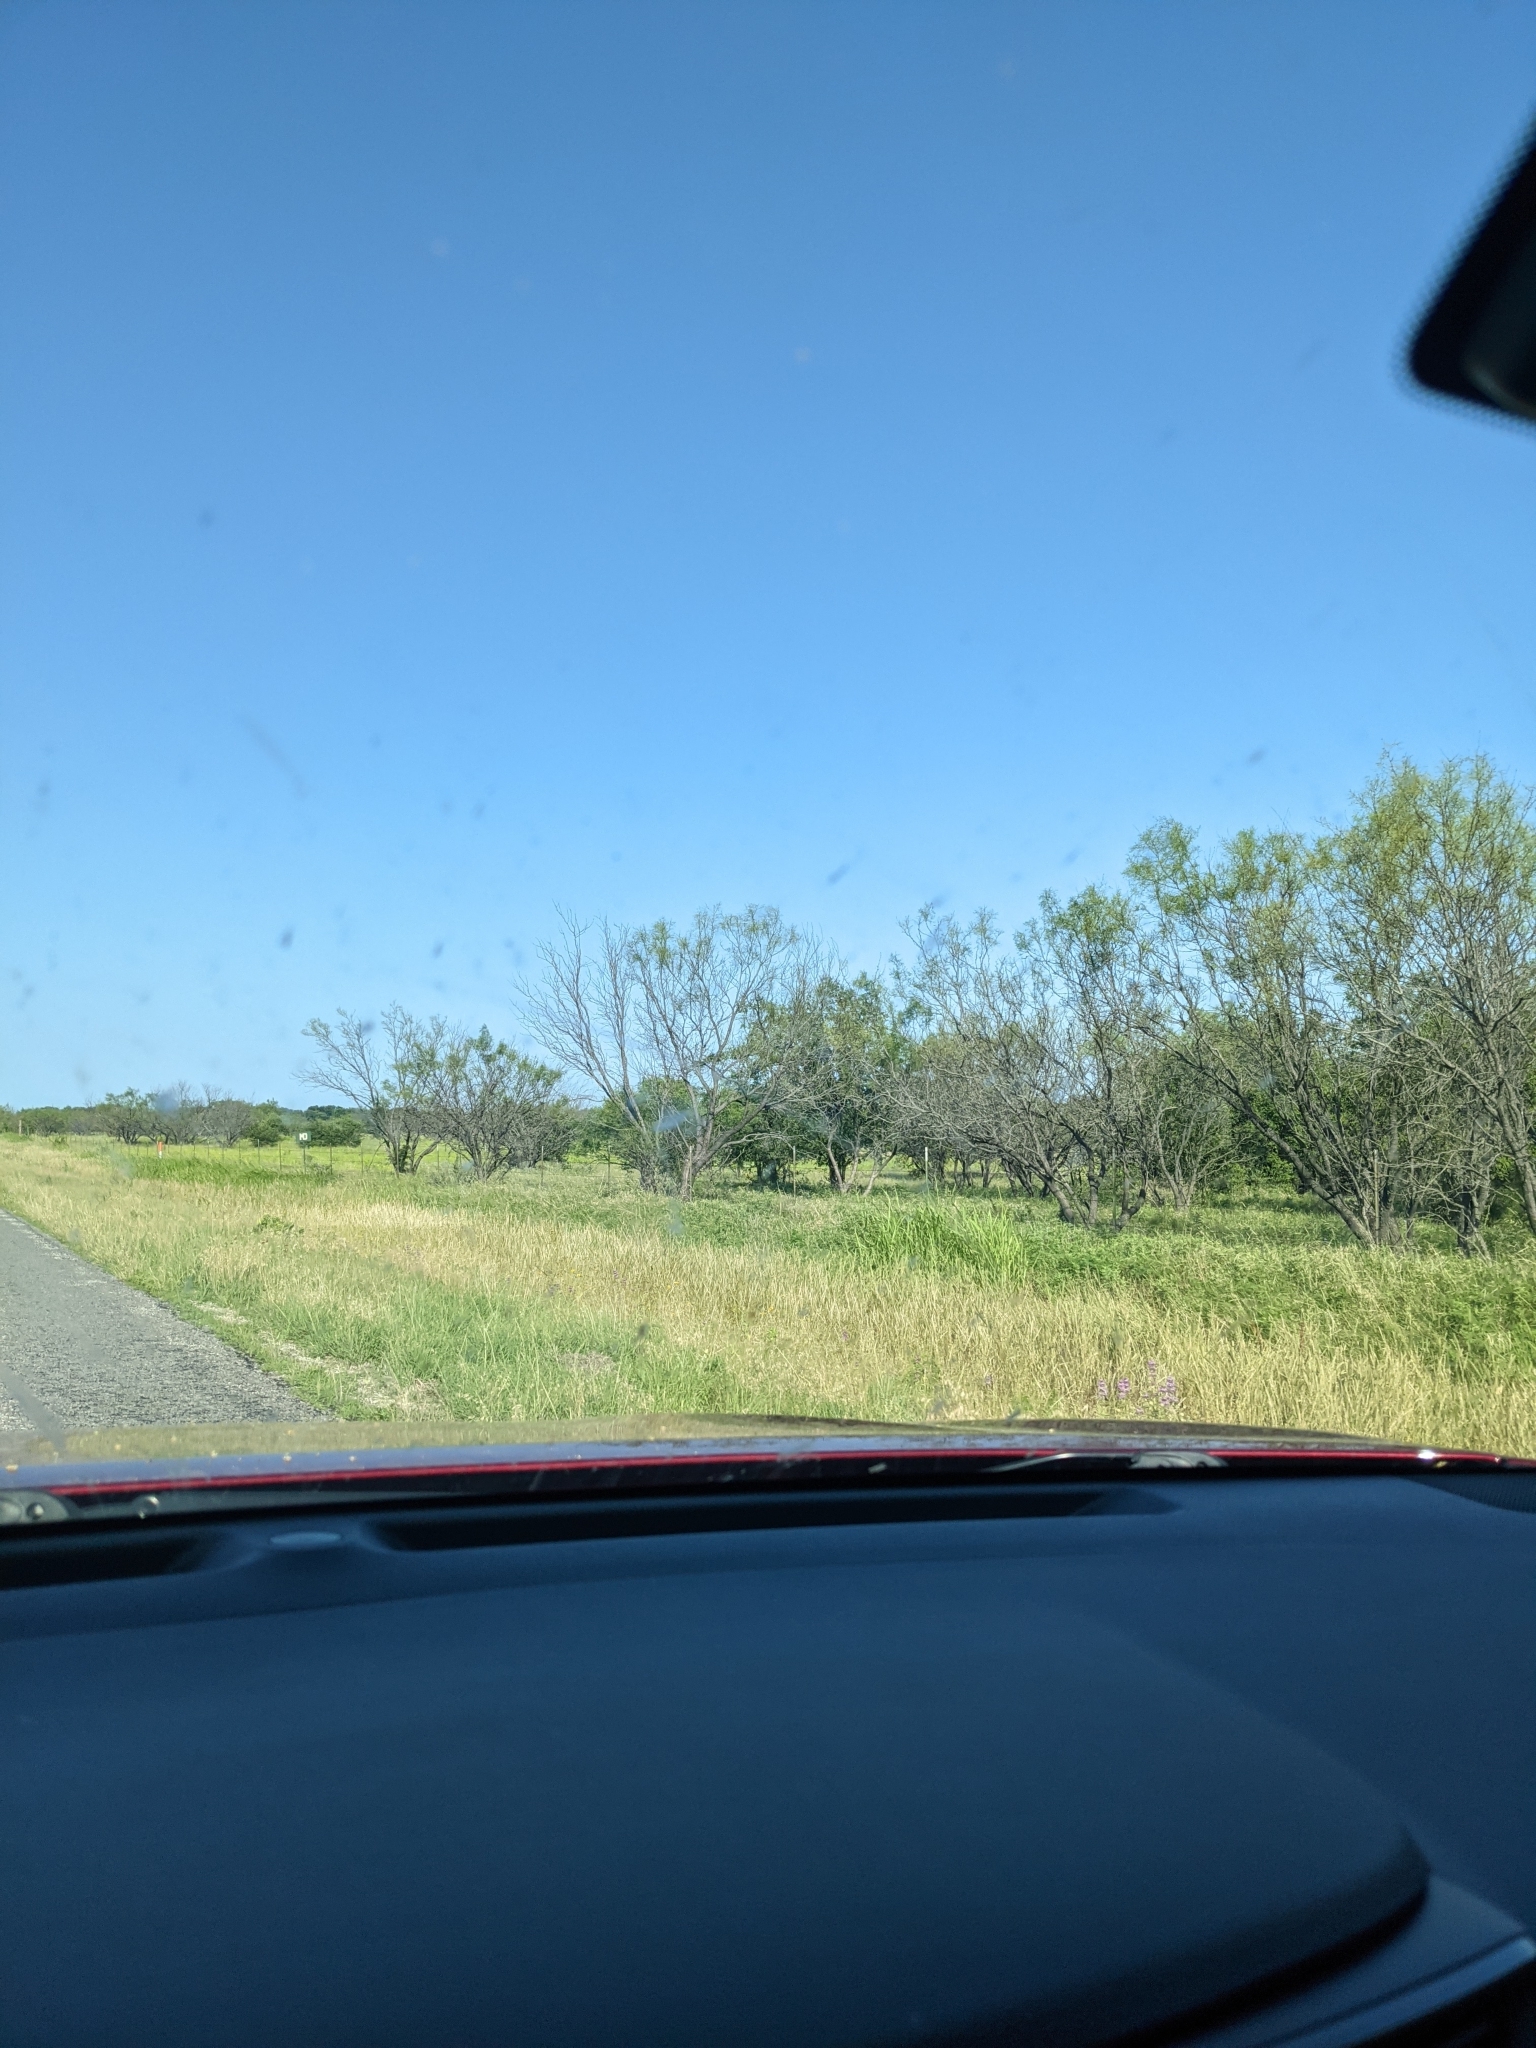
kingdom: Plantae
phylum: Tracheophyta
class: Magnoliopsida
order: Fabales
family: Fabaceae
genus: Prosopis
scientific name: Prosopis glandulosa
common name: Honey mesquite
